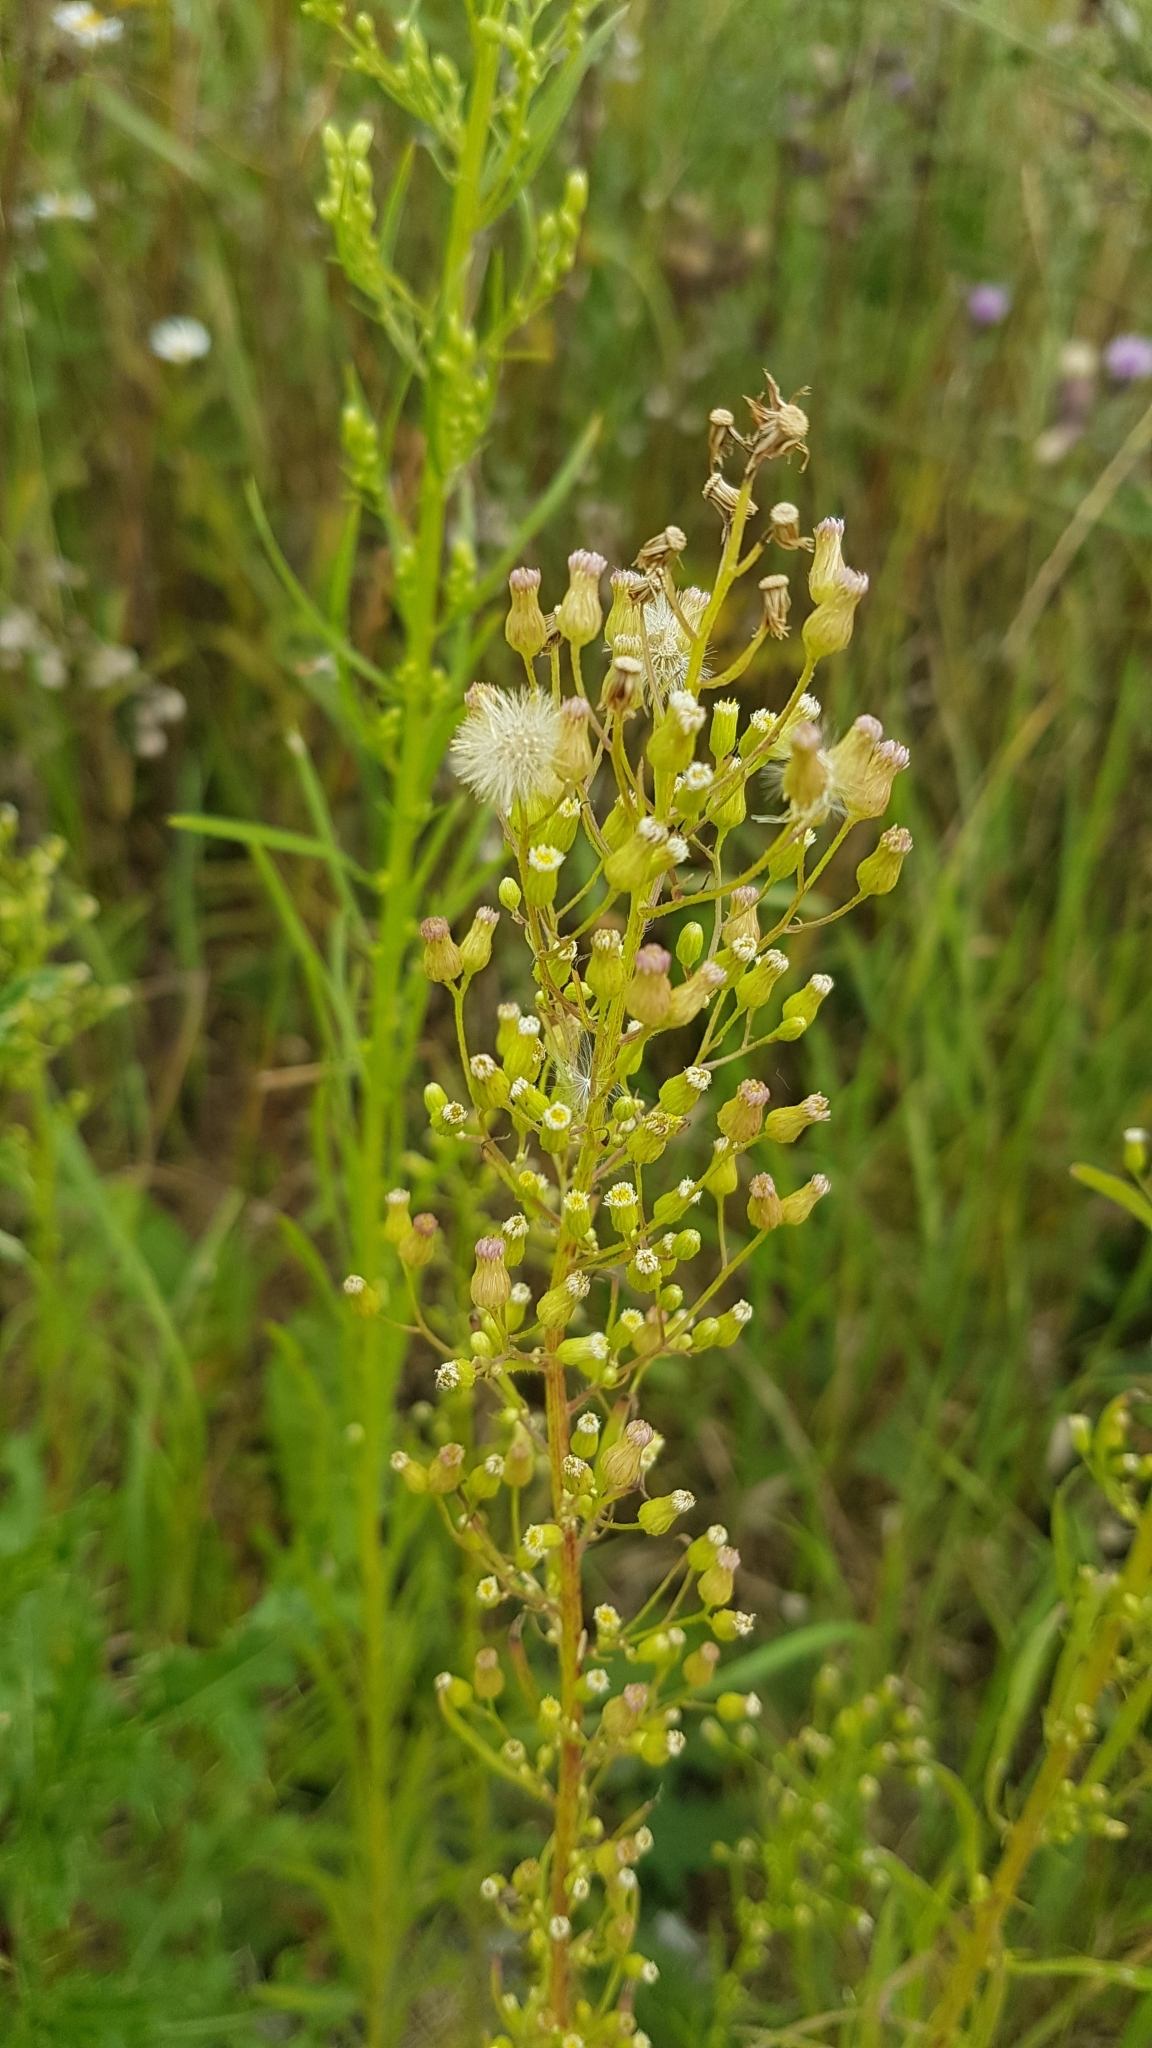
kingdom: Plantae
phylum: Tracheophyta
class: Magnoliopsida
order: Asterales
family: Asteraceae
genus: Erigeron
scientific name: Erigeron canadensis
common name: Canadian fleabane
